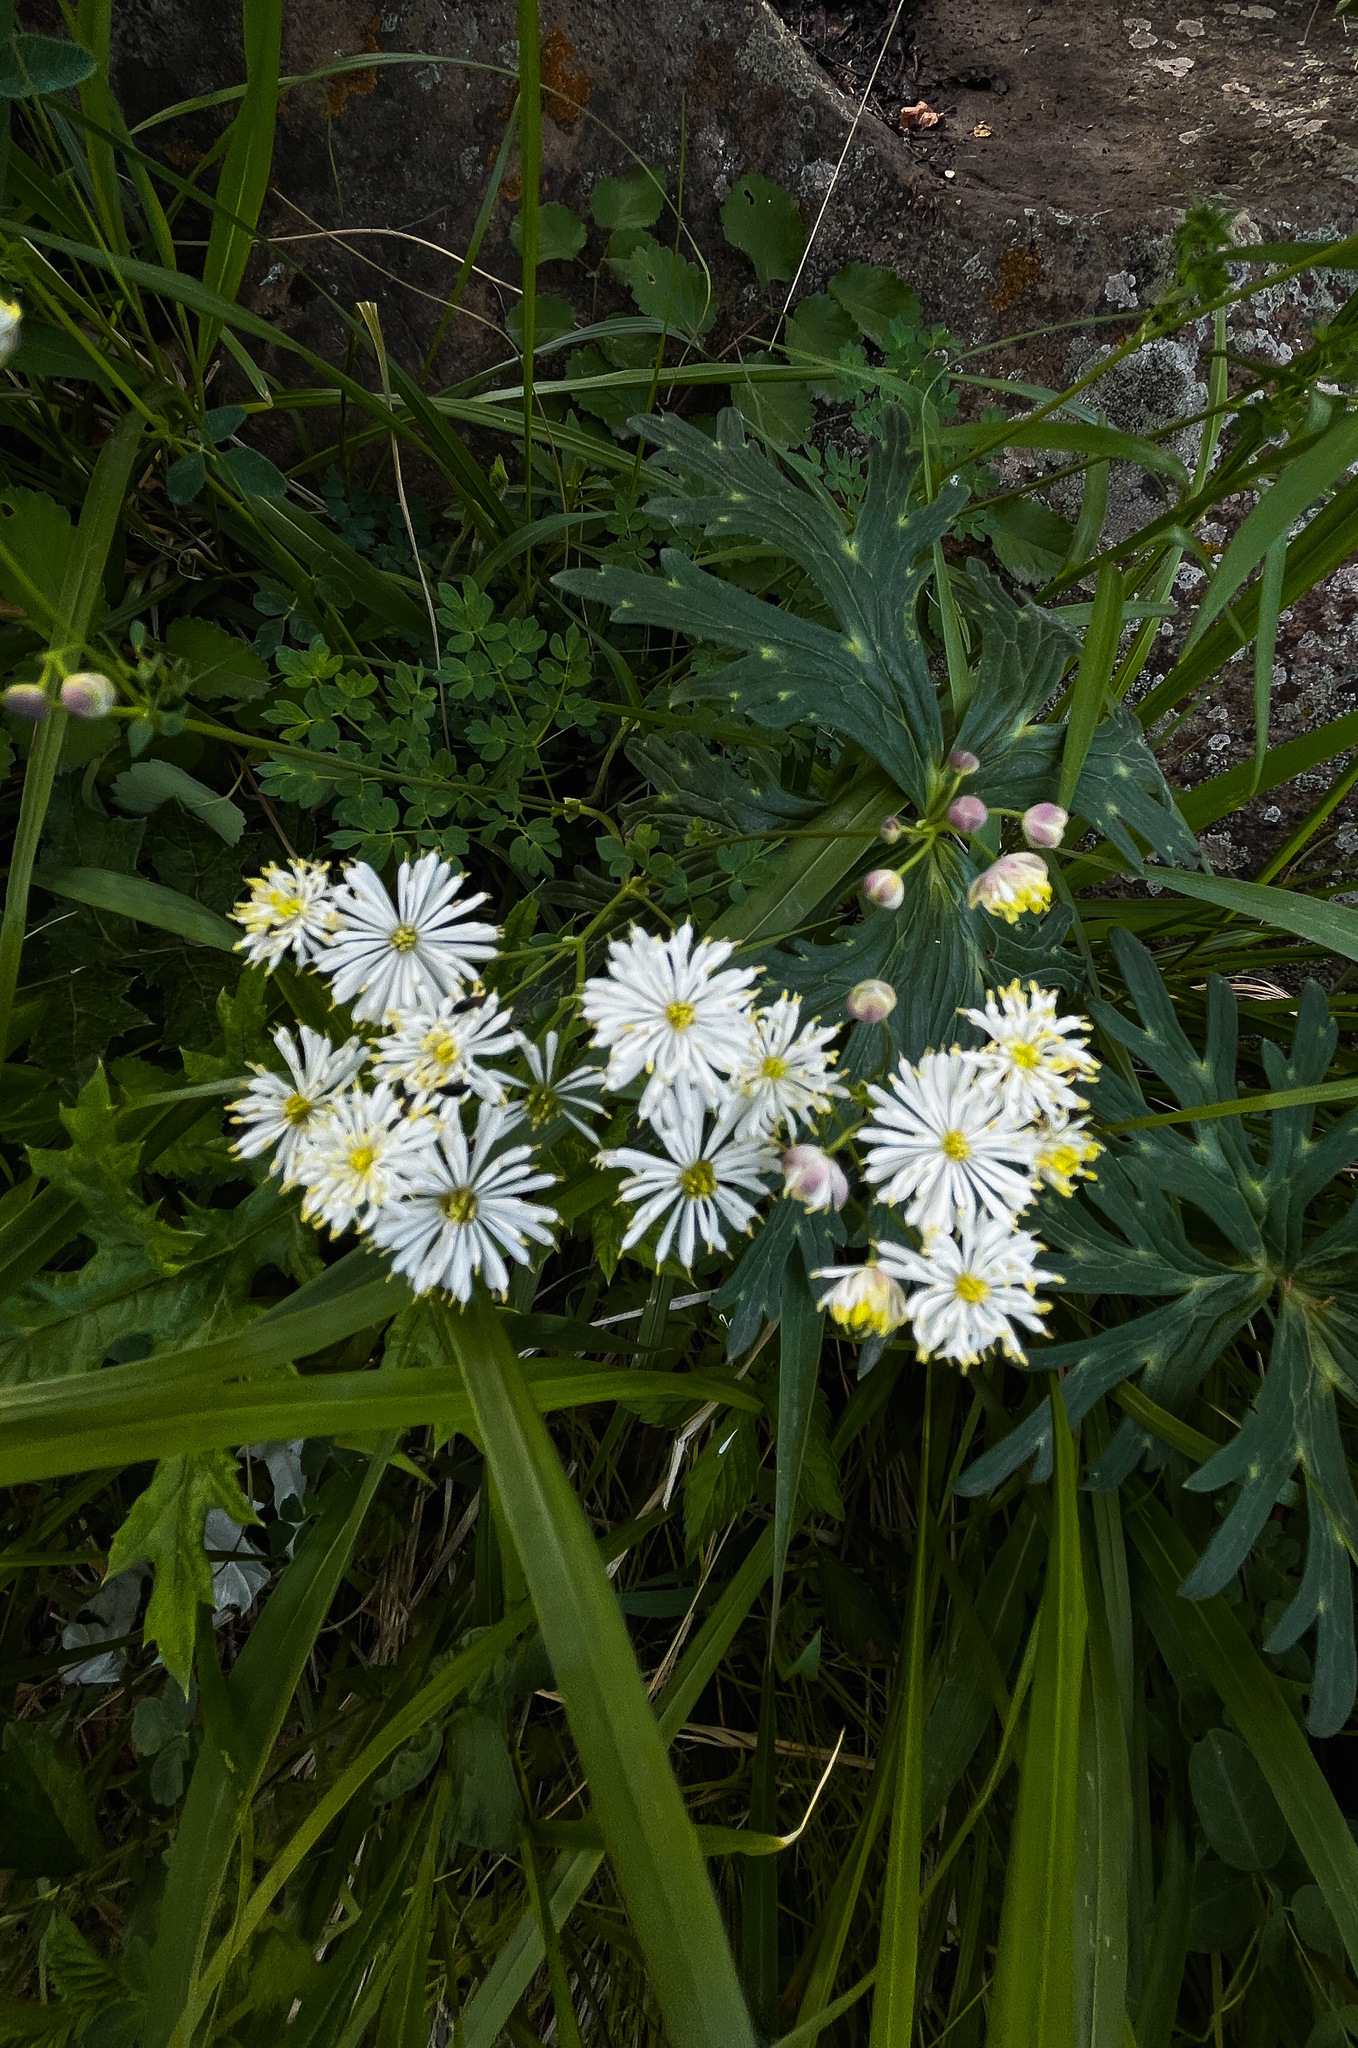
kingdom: Plantae
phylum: Tracheophyta
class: Magnoliopsida
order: Ranunculales
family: Ranunculaceae
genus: Thalictrum
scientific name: Thalictrum petaloideum
